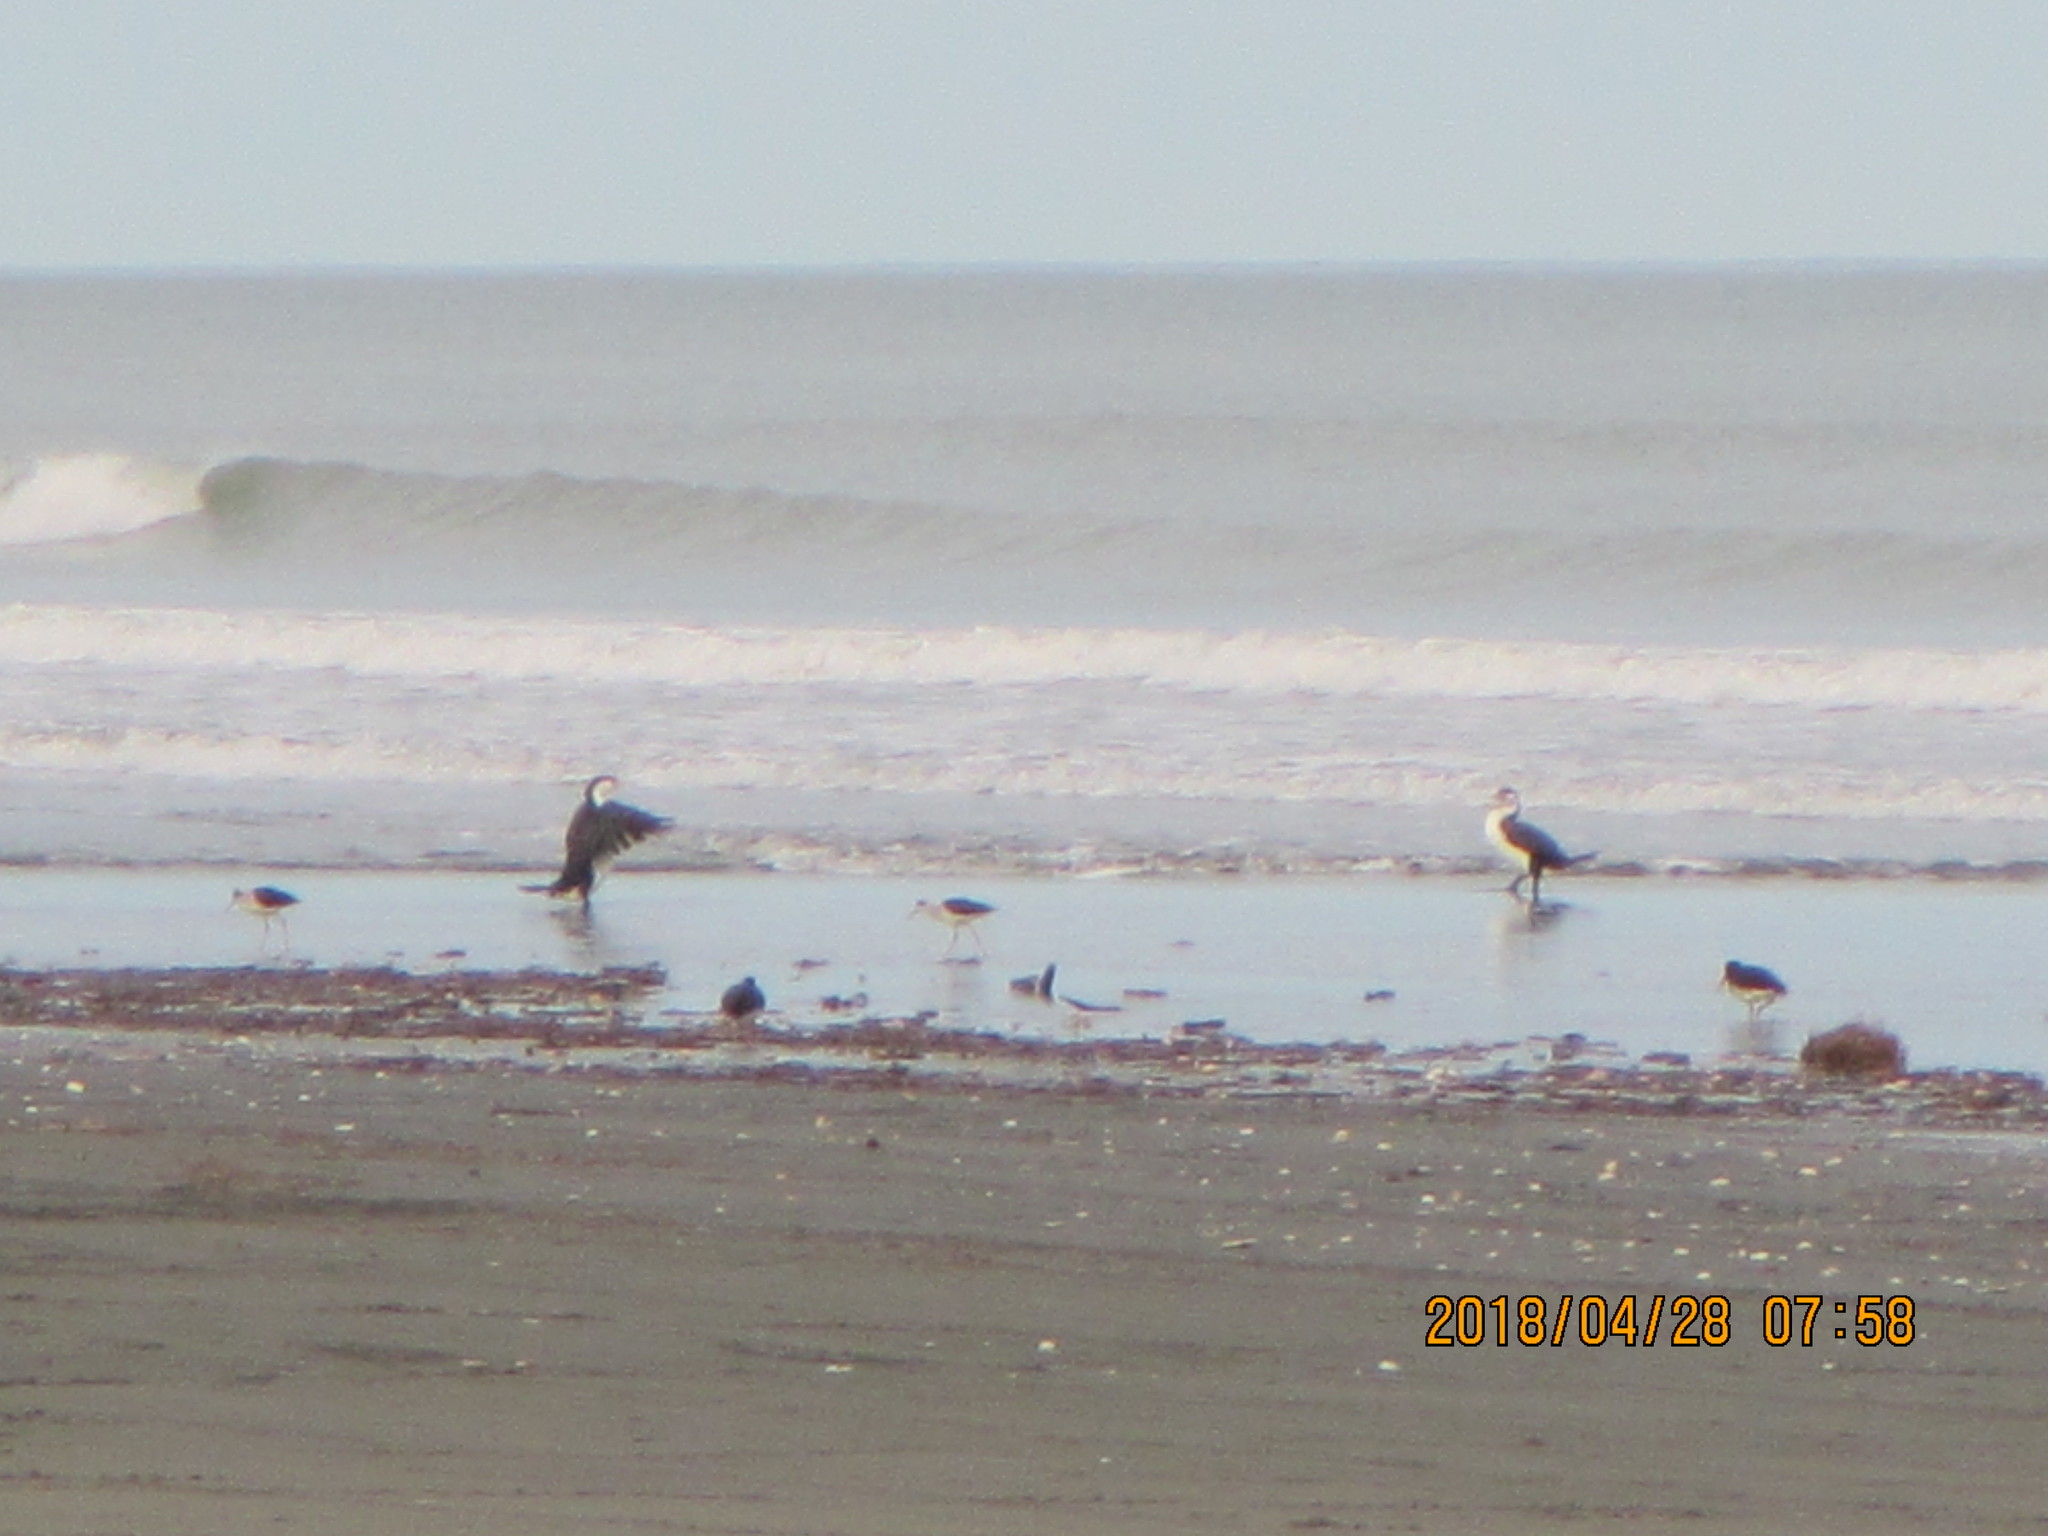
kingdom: Animalia
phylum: Chordata
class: Aves
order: Suliformes
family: Phalacrocoracidae
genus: Phalacrocorax
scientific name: Phalacrocorax varius
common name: Pied cormorant
